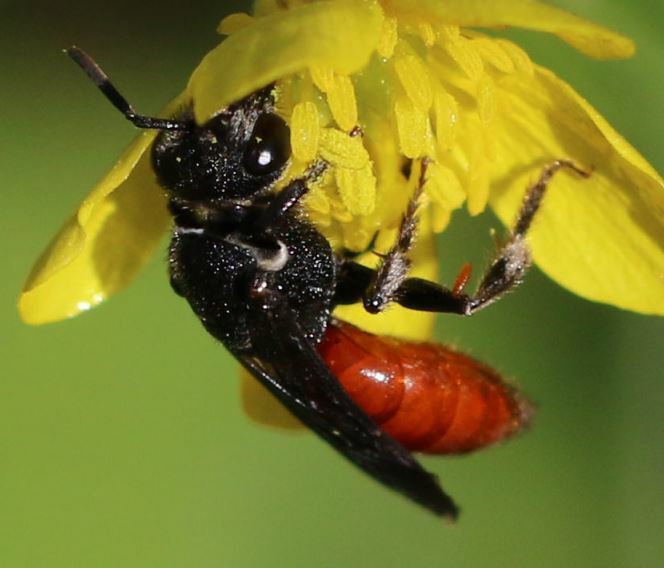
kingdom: Animalia
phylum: Arthropoda
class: Insecta
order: Hymenoptera
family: Halictidae
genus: Sphecodes
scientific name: Sphecodes albilabris
